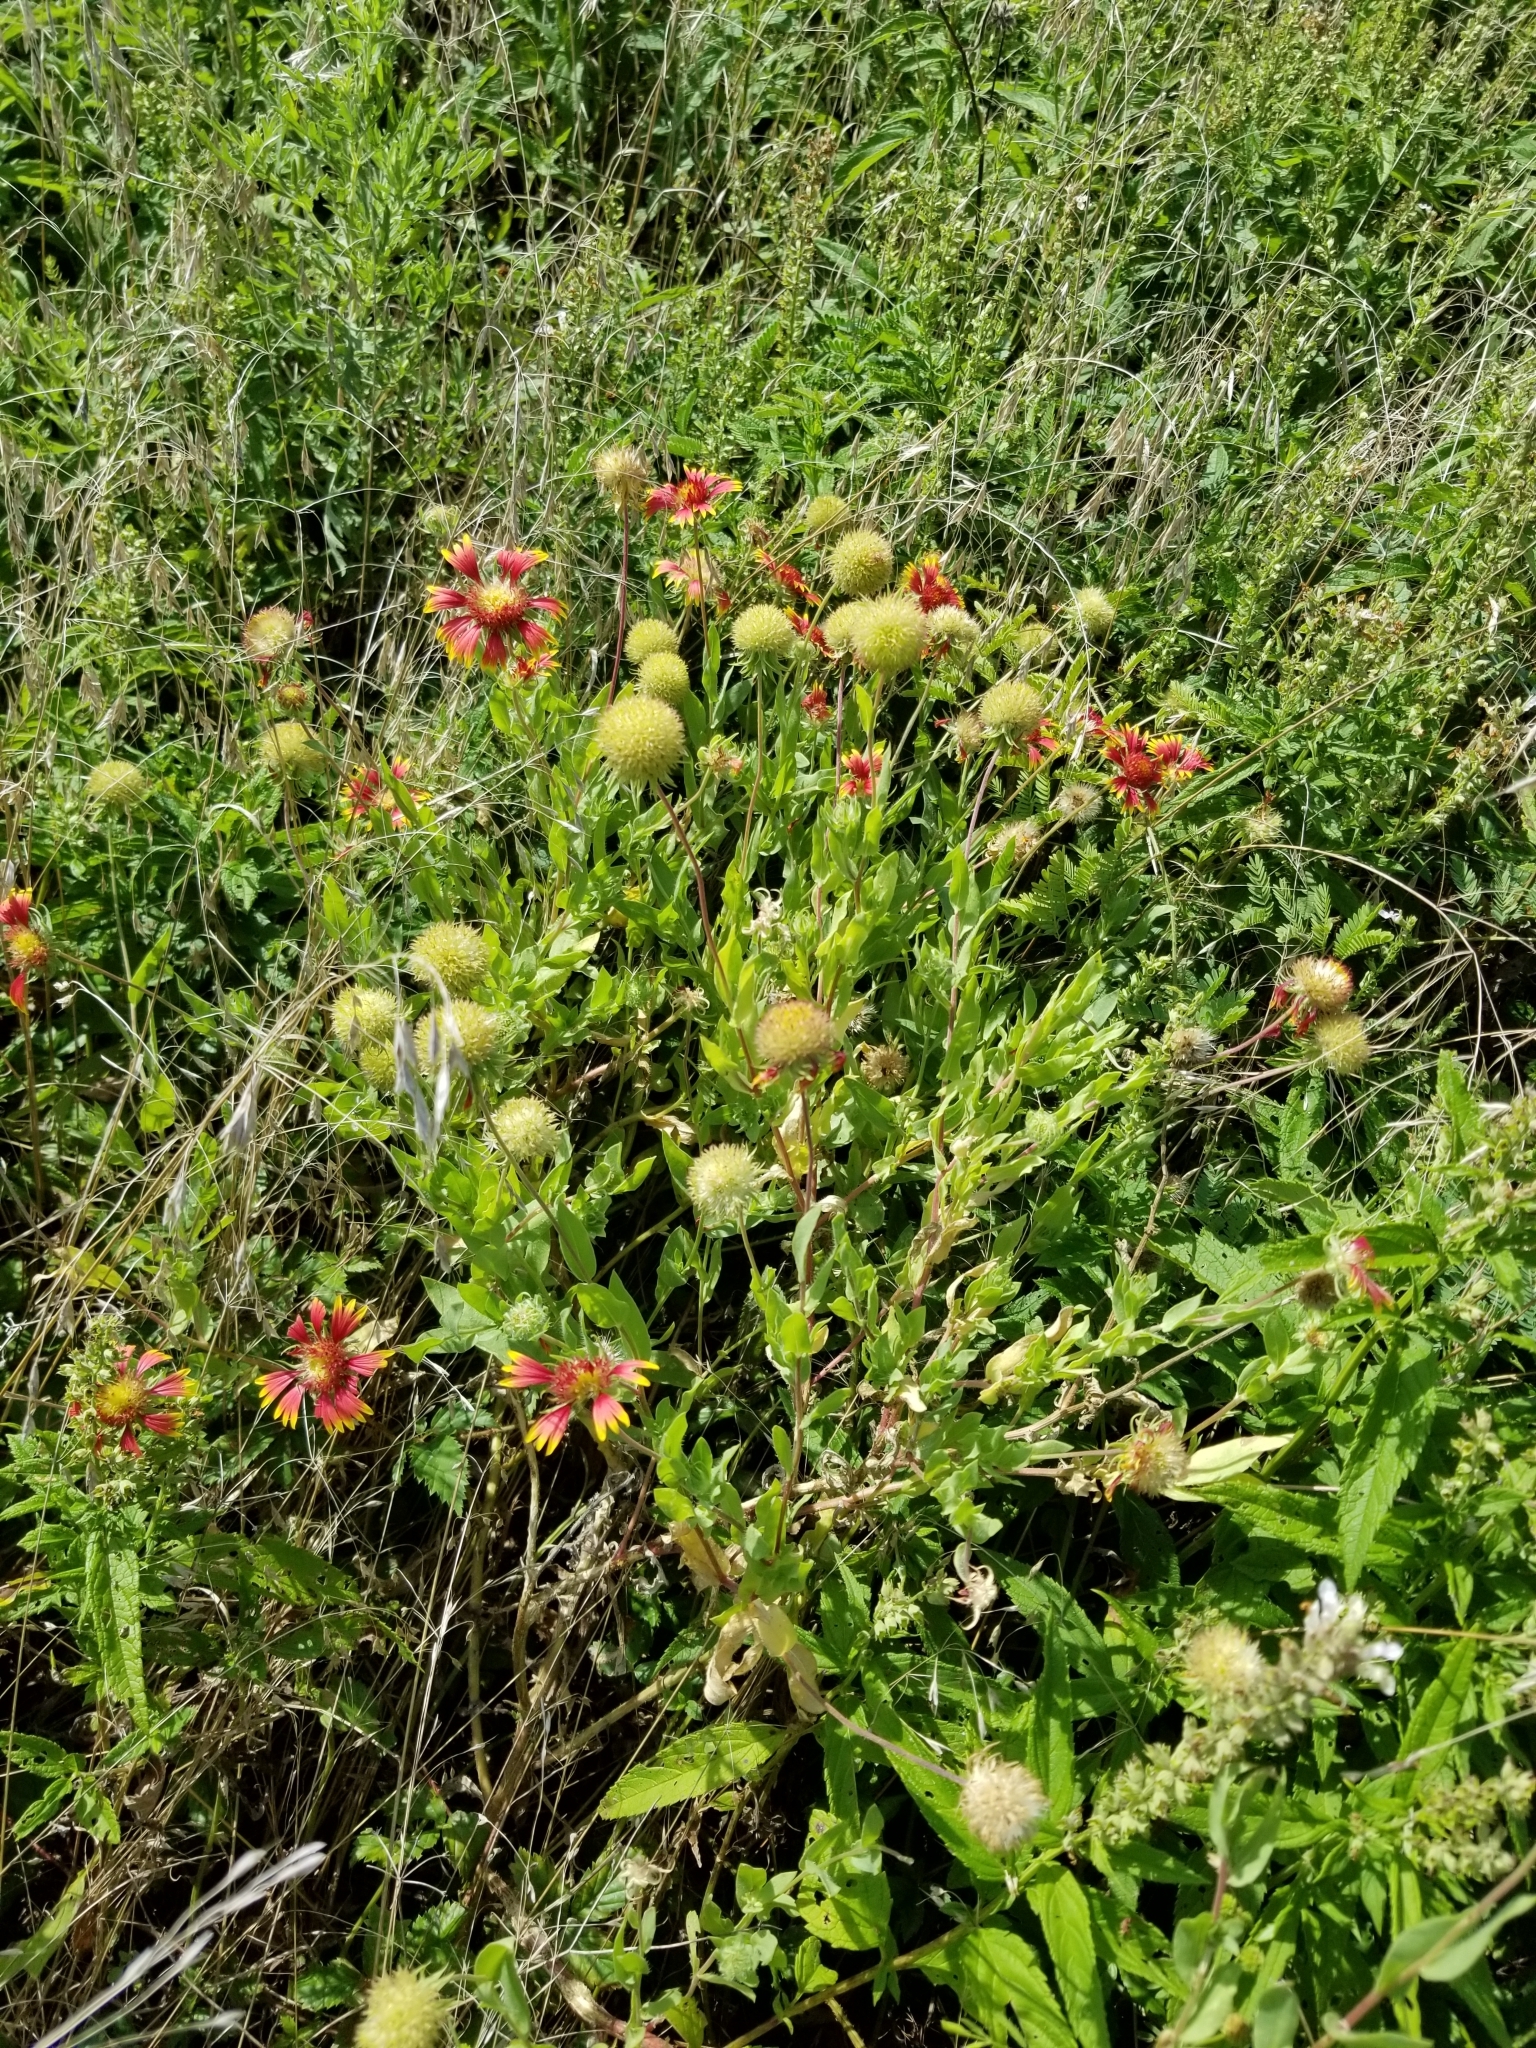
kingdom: Plantae
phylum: Tracheophyta
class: Magnoliopsida
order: Asterales
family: Asteraceae
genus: Gaillardia
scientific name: Gaillardia pulchella
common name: Firewheel
